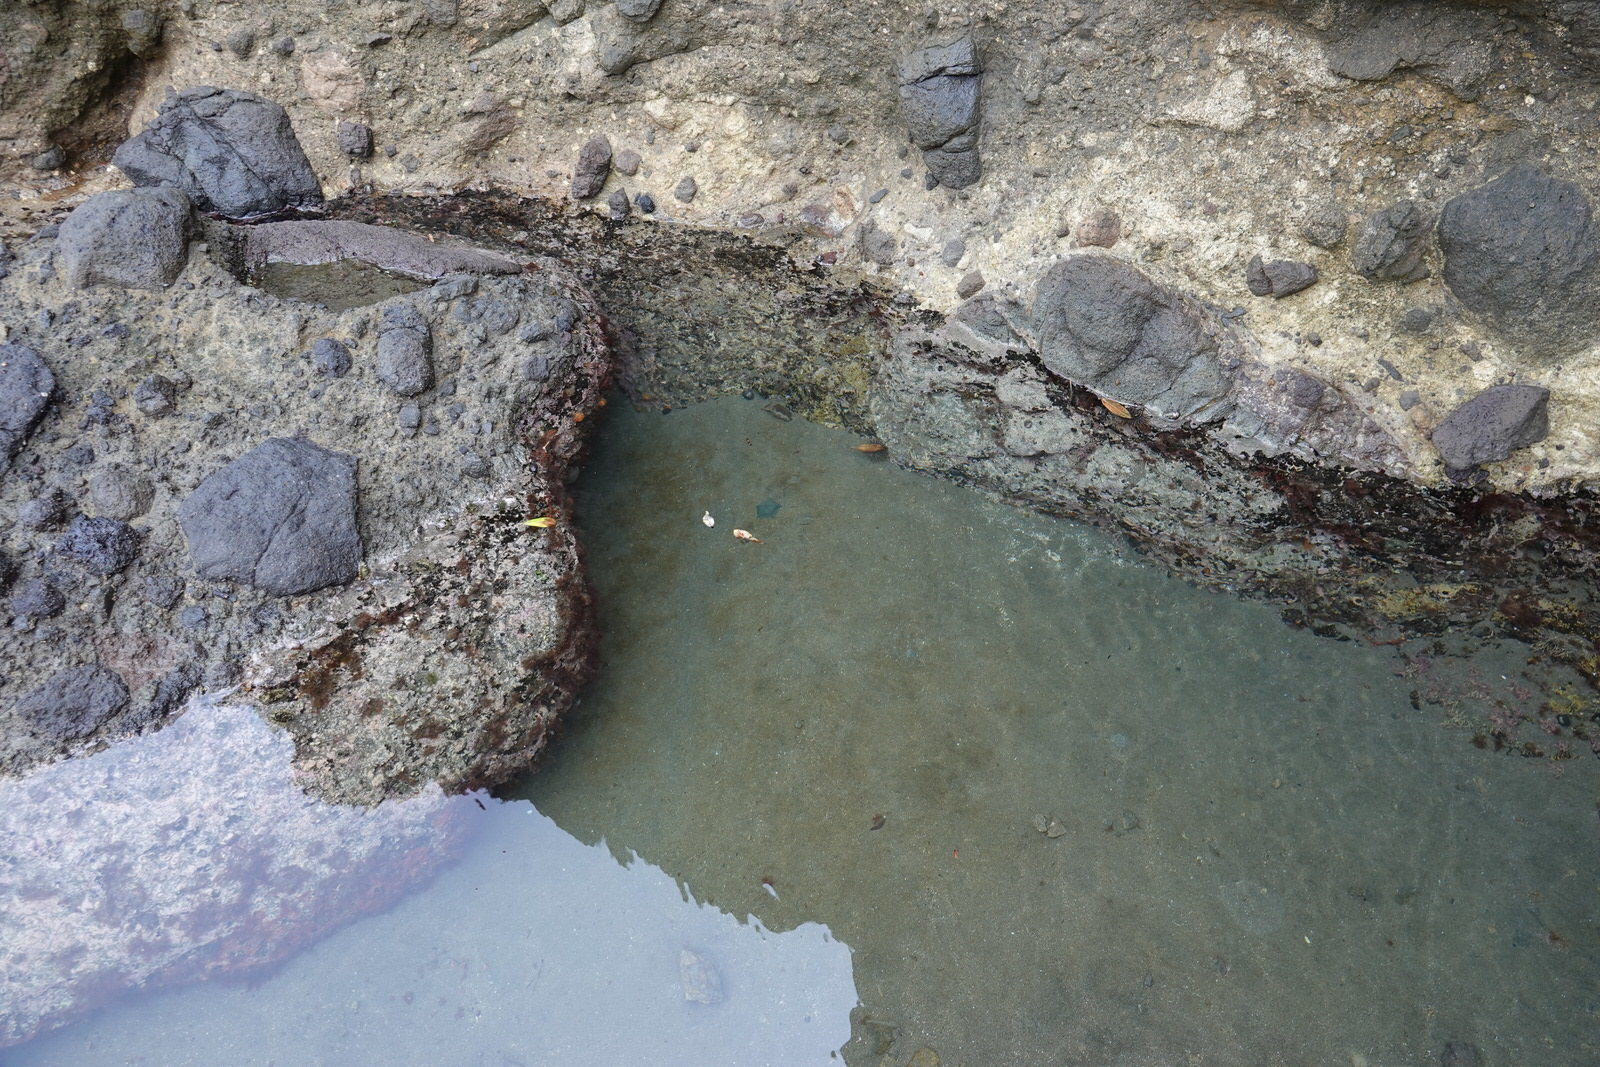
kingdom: Animalia
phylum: Echinodermata
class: Asteroidea
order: Valvatida
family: Asterinidae
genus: Patiriella
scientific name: Patiriella regularis
